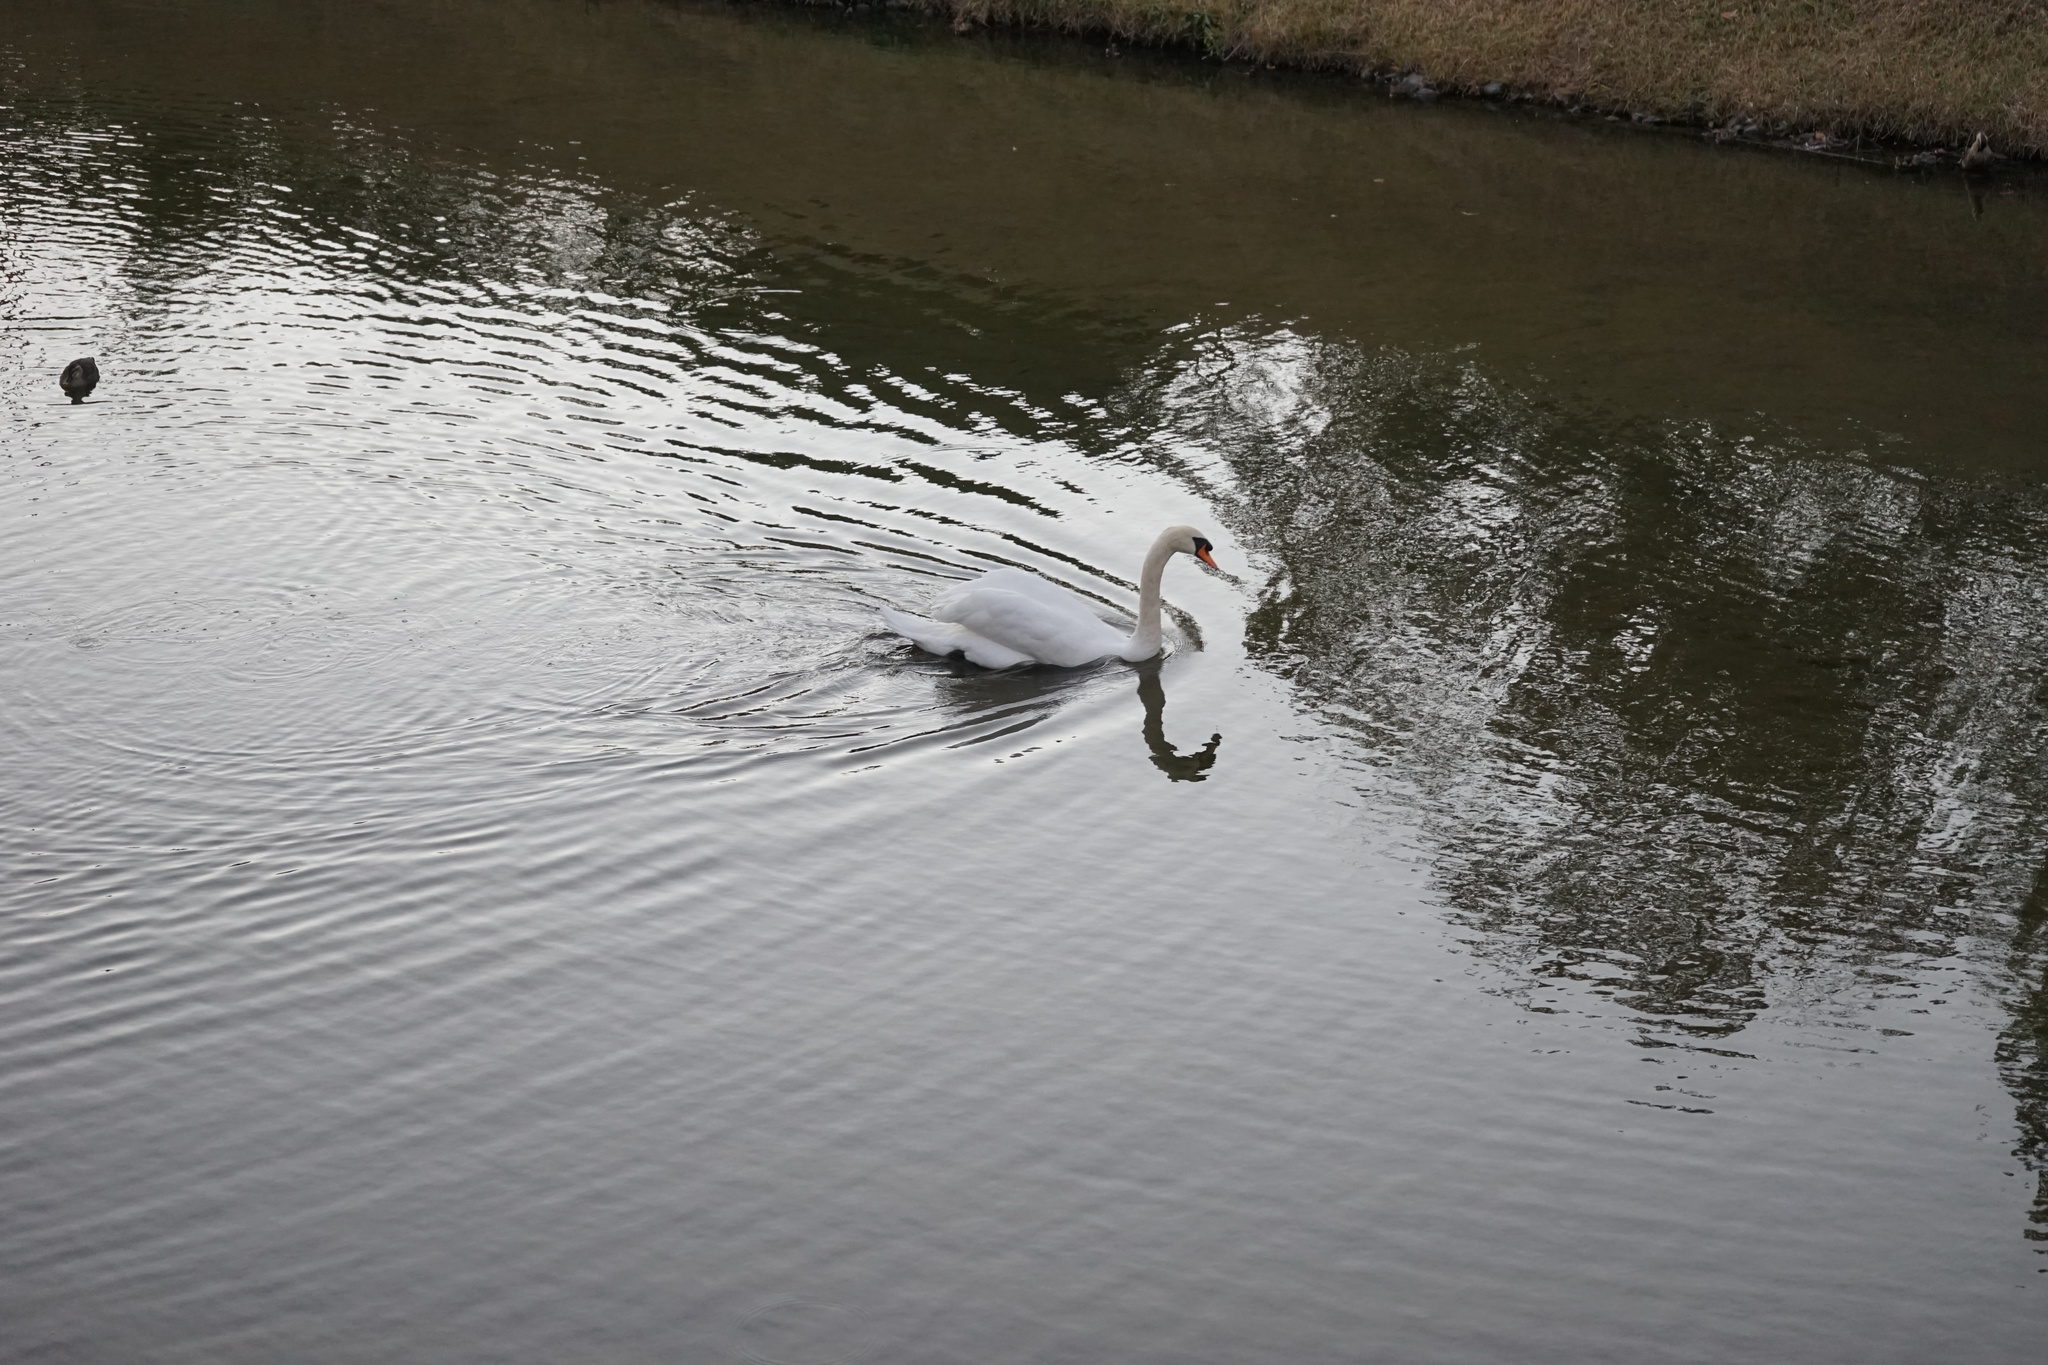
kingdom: Animalia
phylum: Chordata
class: Aves
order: Anseriformes
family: Anatidae
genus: Cygnus
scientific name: Cygnus olor
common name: Mute swan
